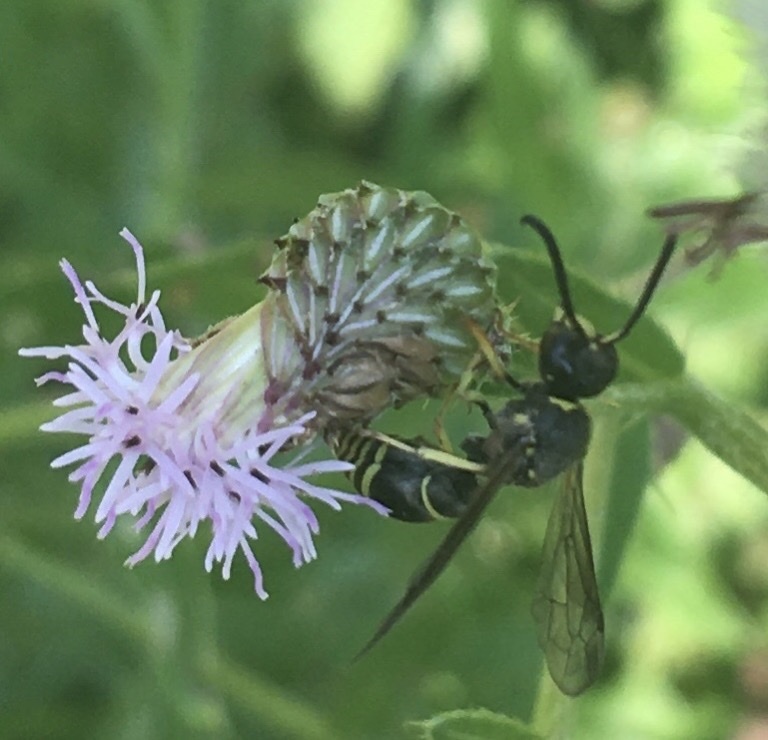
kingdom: Animalia
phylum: Arthropoda
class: Insecta
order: Hymenoptera
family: Vespidae
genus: Ancistrocerus
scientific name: Ancistrocerus
